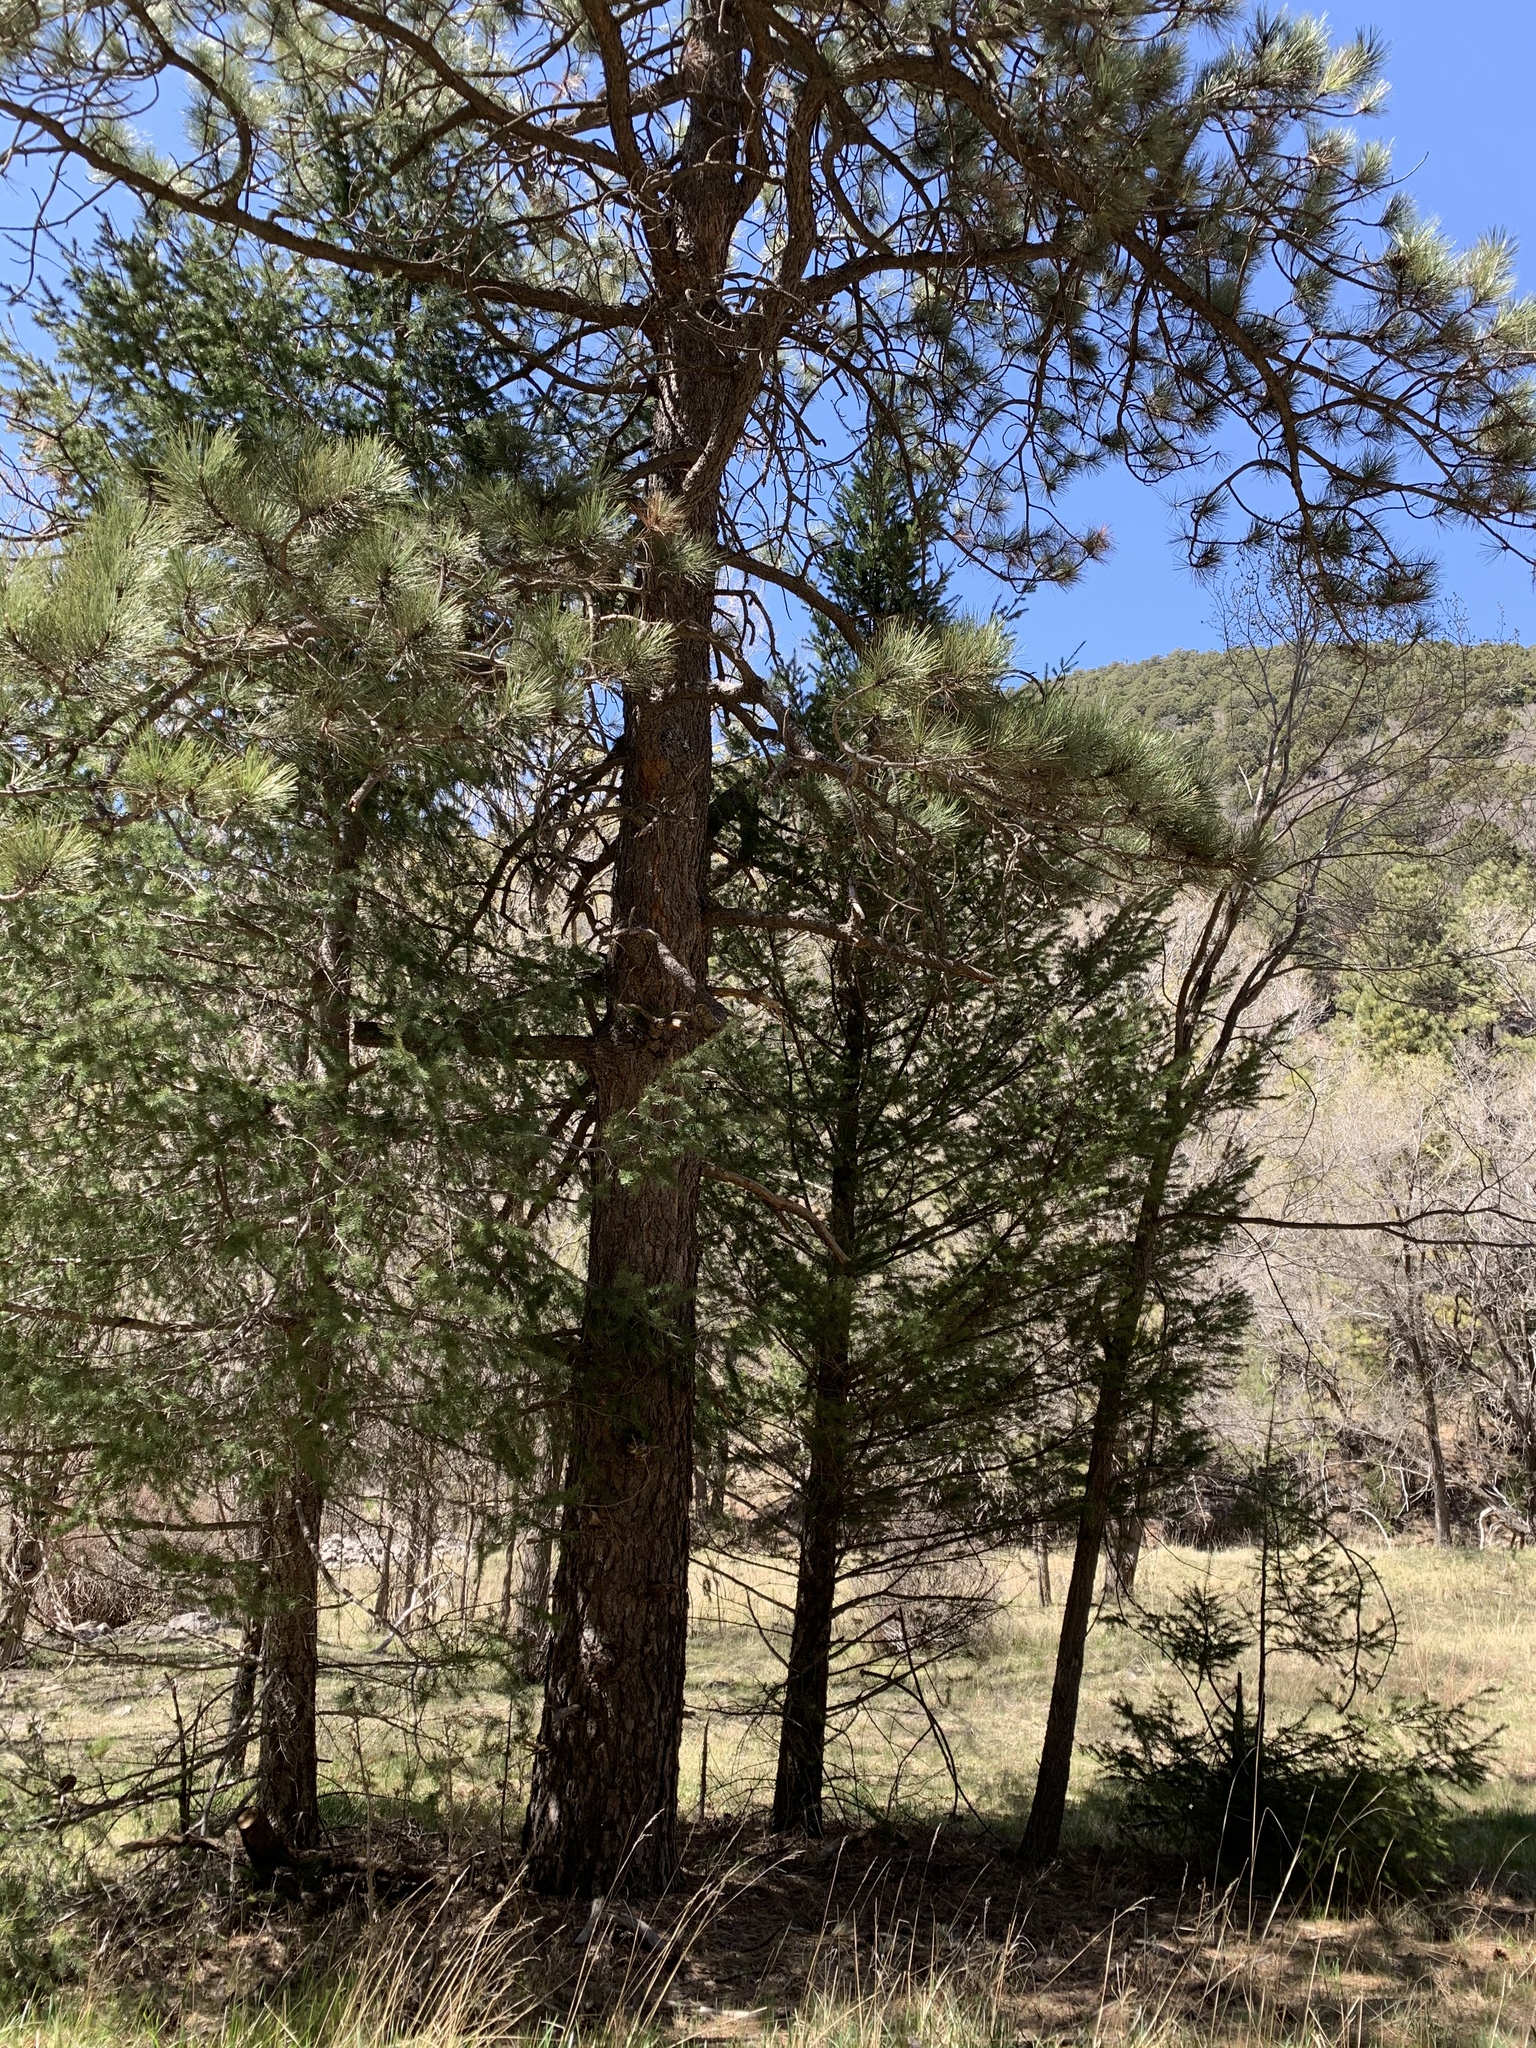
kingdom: Plantae
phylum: Tracheophyta
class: Pinopsida
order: Pinales
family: Pinaceae
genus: Pinus
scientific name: Pinus ponderosa
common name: Western yellow-pine
